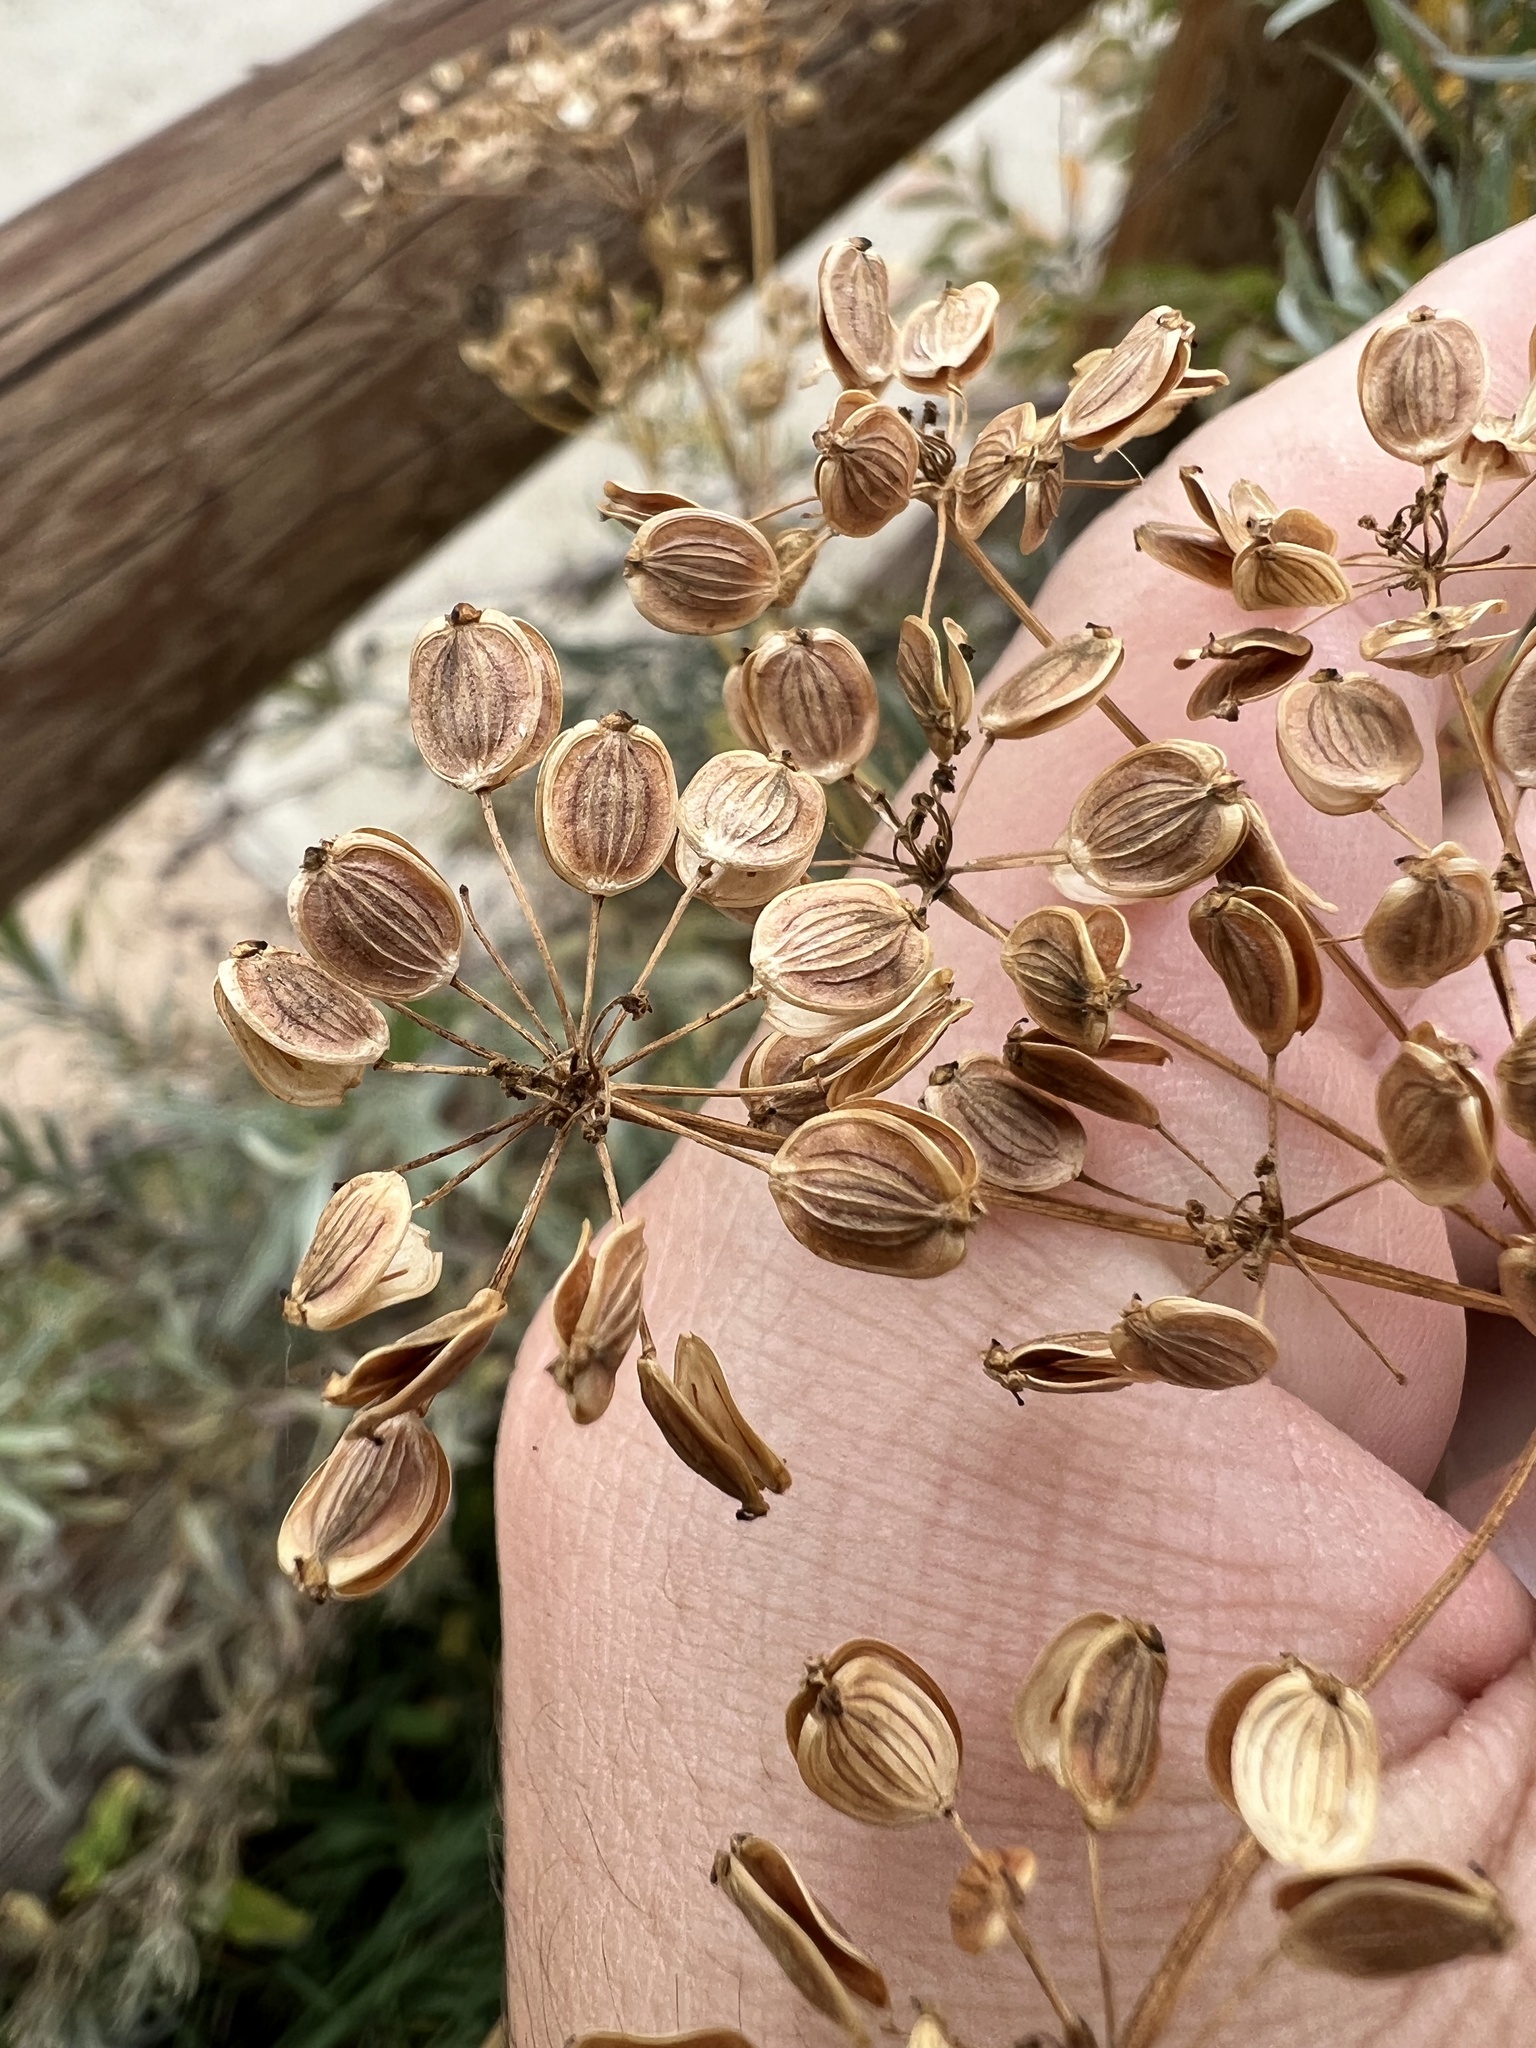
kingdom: Plantae
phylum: Tracheophyta
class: Magnoliopsida
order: Apiales
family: Apiaceae
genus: Pastinaca
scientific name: Pastinaca sativa
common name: Wild parsnip
